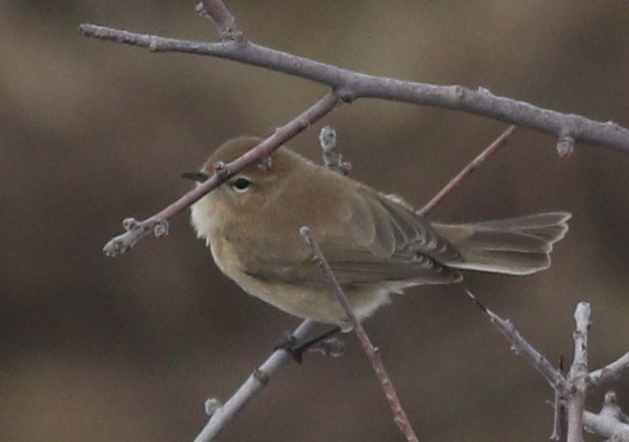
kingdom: Animalia
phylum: Chordata
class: Aves
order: Passeriformes
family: Phylloscopidae
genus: Phylloscopus
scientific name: Phylloscopus sindianus
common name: Mountain chiffchaff
